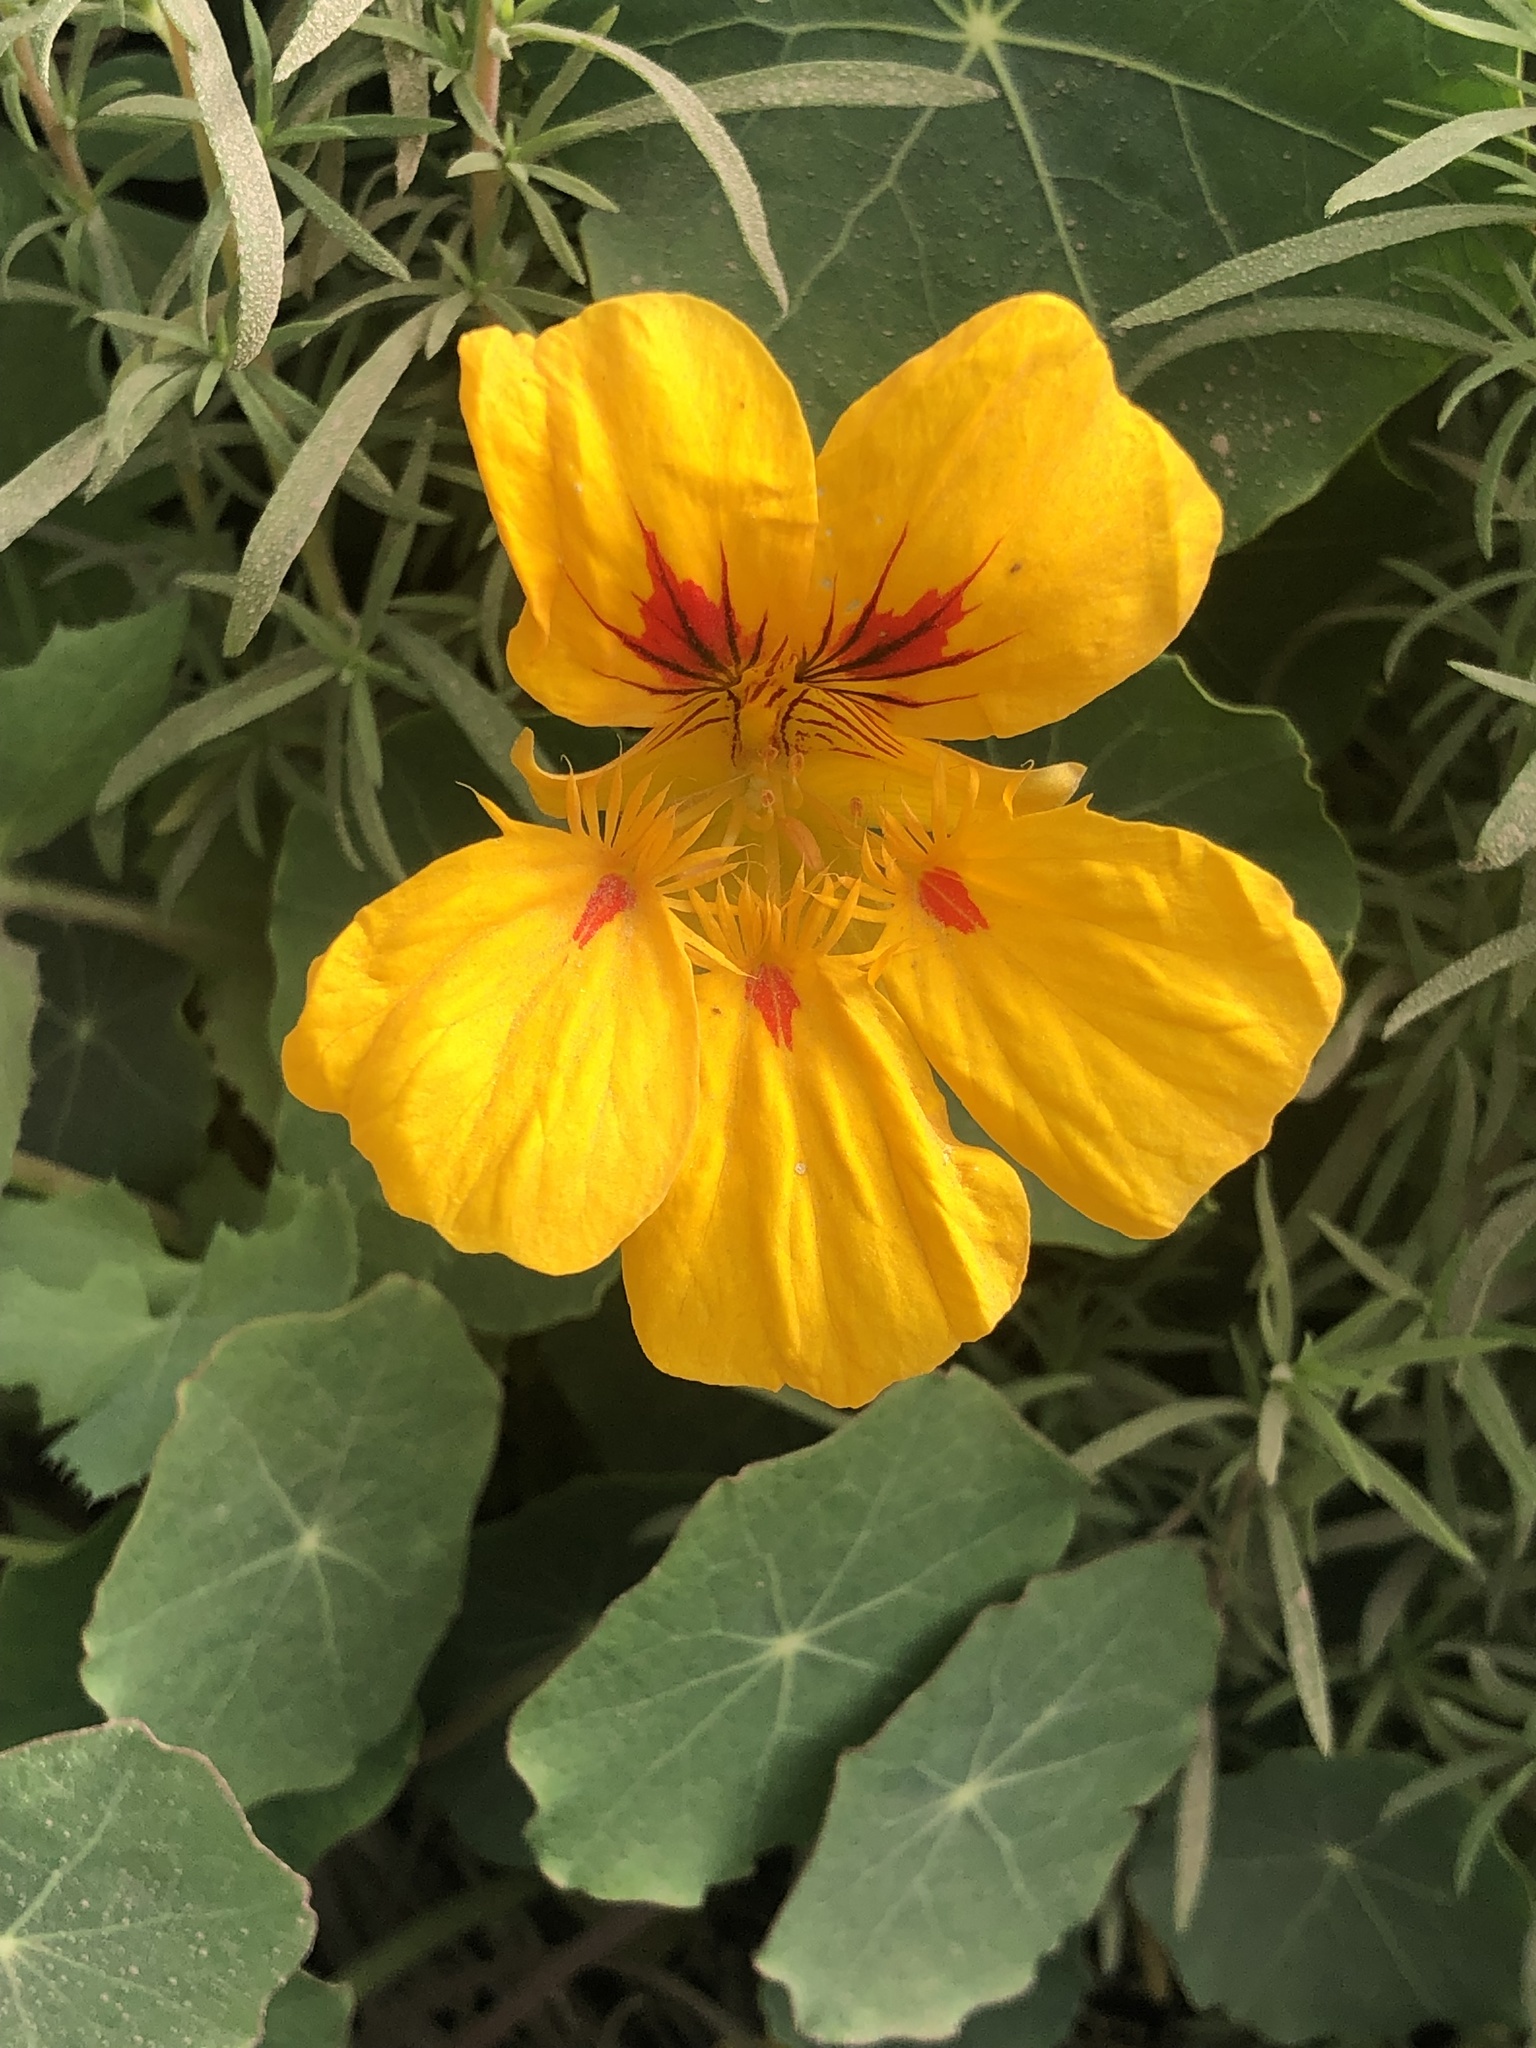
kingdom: Plantae
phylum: Tracheophyta
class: Magnoliopsida
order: Brassicales
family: Tropaeolaceae
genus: Tropaeolum
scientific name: Tropaeolum majus
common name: Nasturtium
